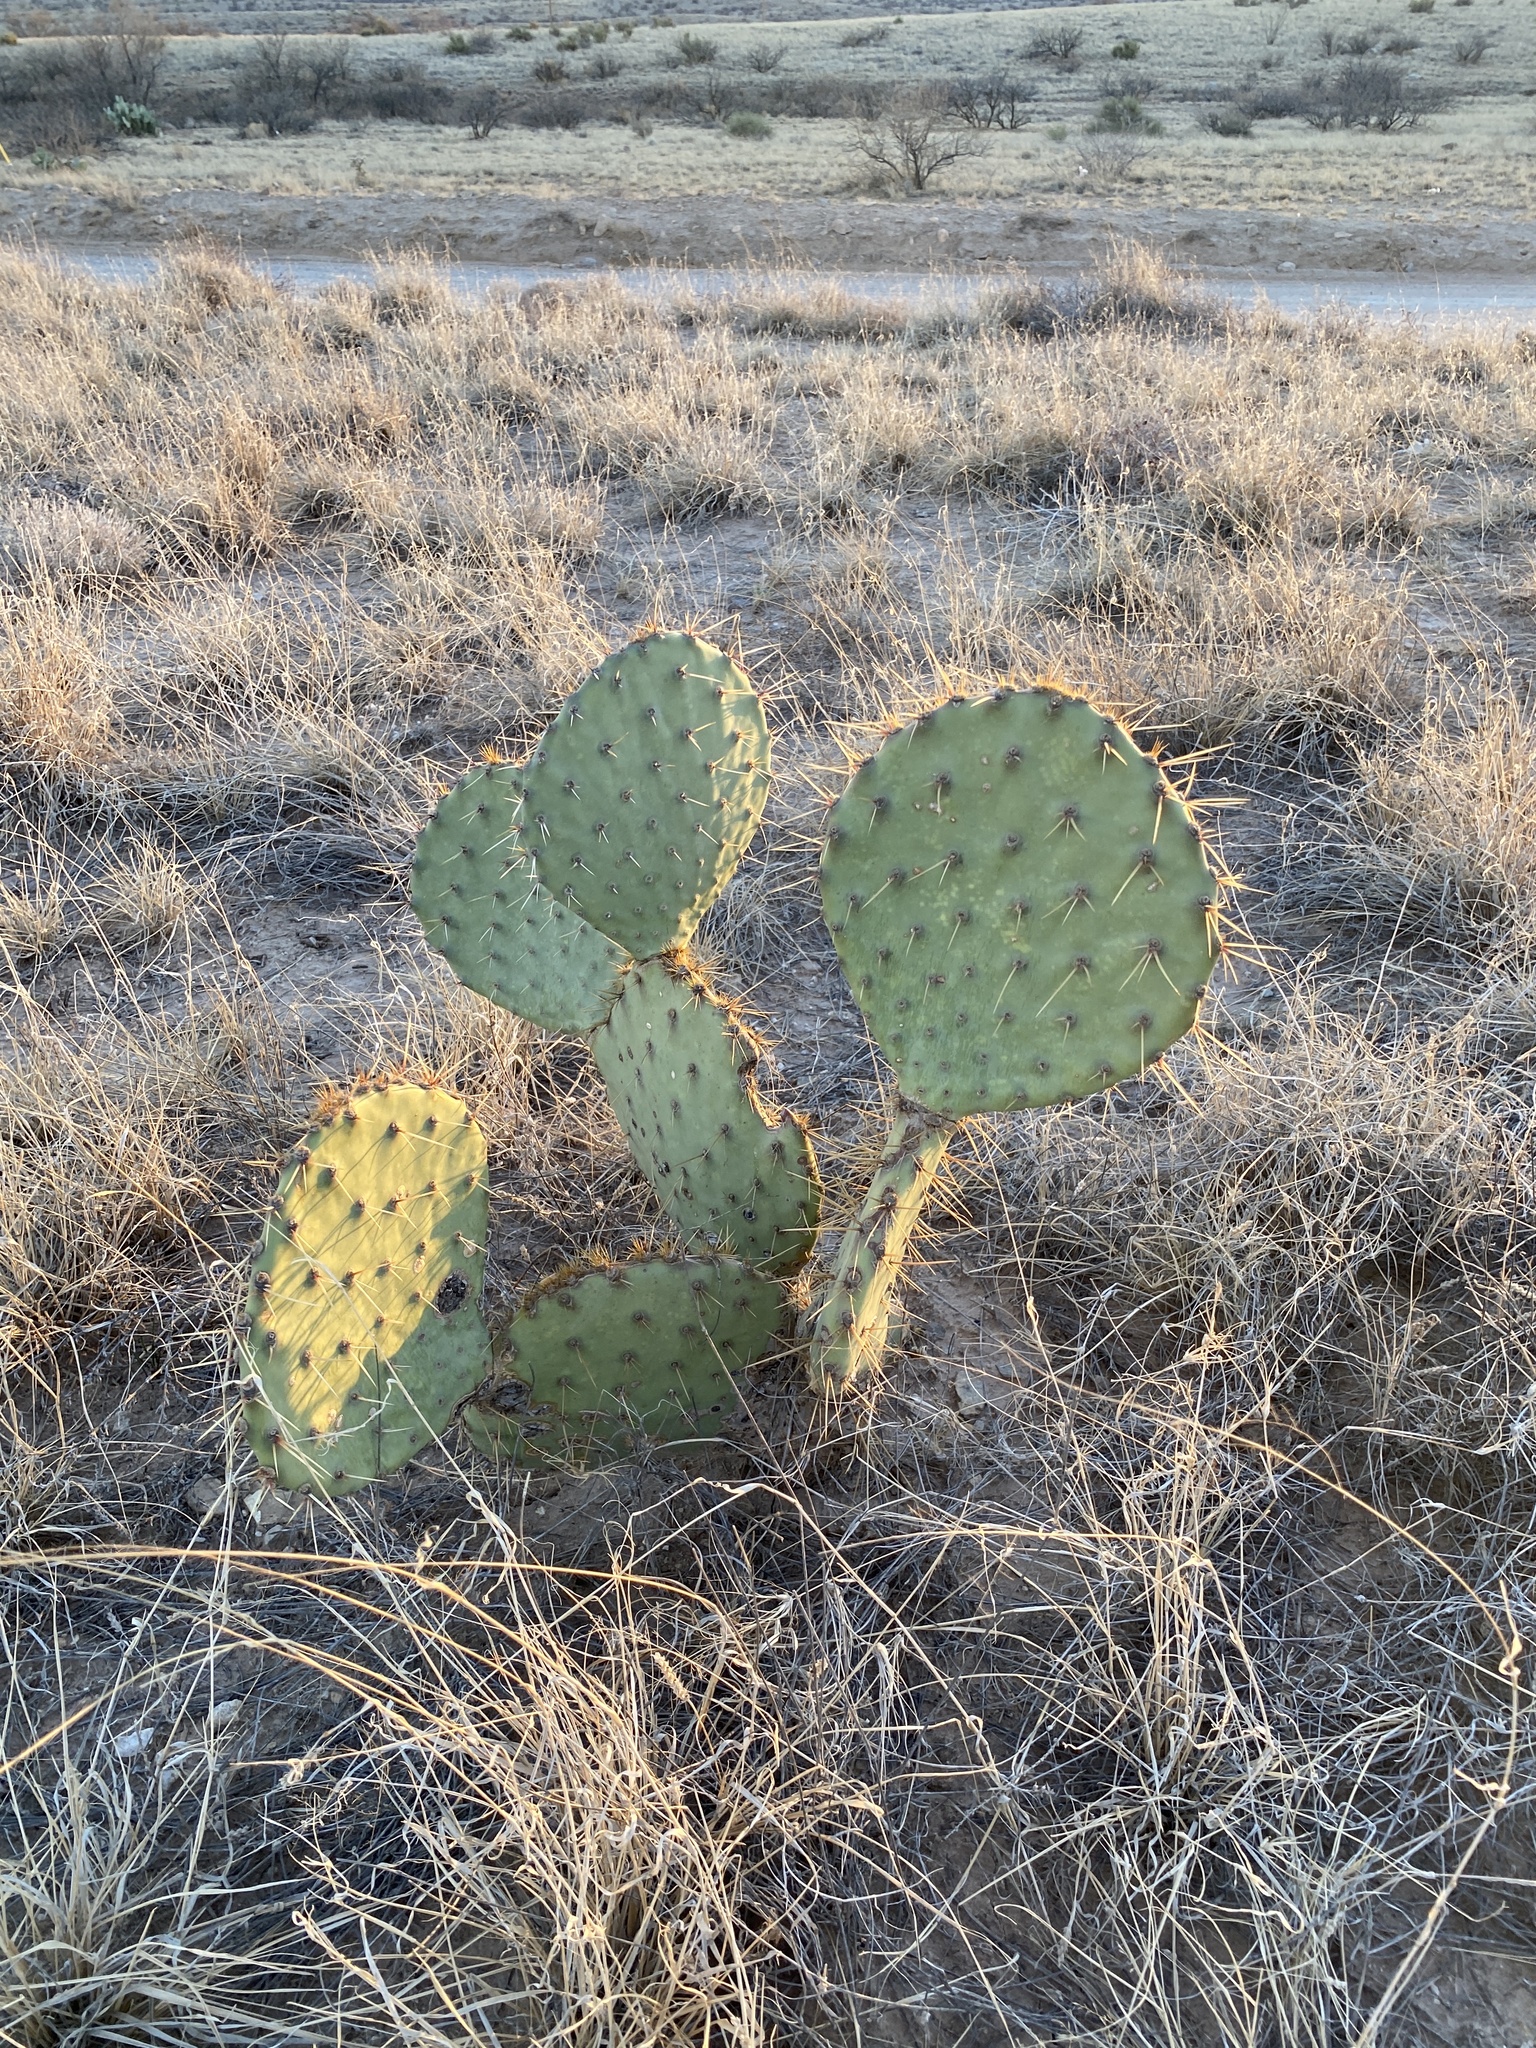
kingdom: Plantae
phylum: Tracheophyta
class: Magnoliopsida
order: Caryophyllales
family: Cactaceae
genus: Opuntia
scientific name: Opuntia engelmannii
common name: Cactus-apple
